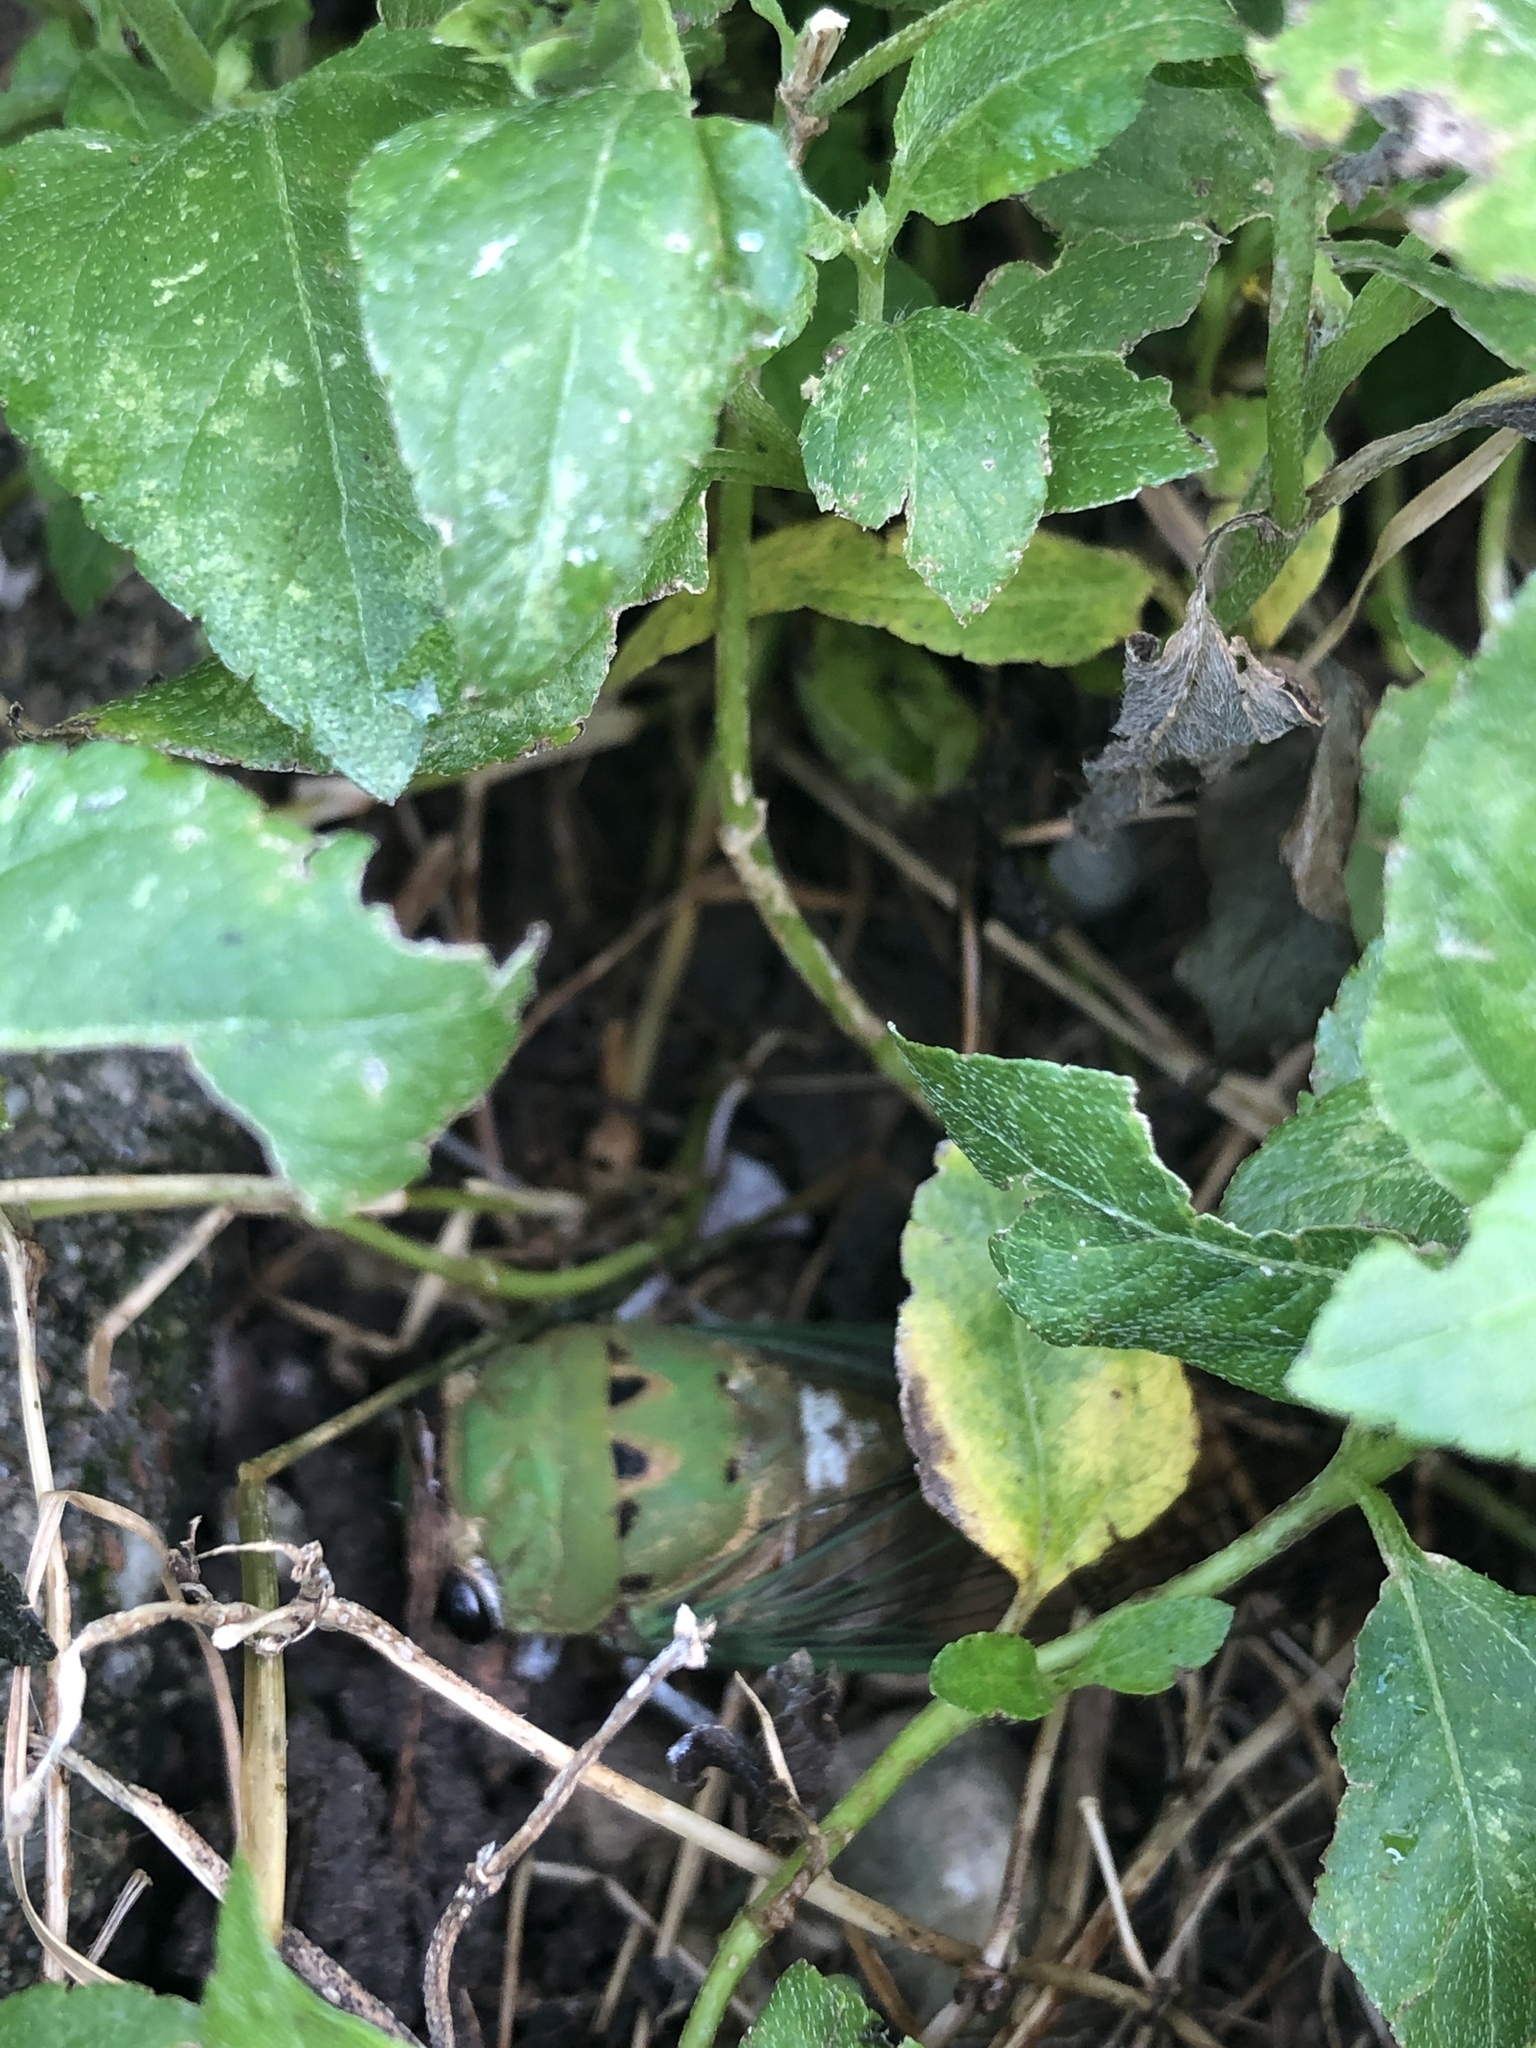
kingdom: Animalia
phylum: Arthropoda
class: Insecta
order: Hemiptera
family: Cicadidae
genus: Neotibicen
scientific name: Neotibicen superbus
